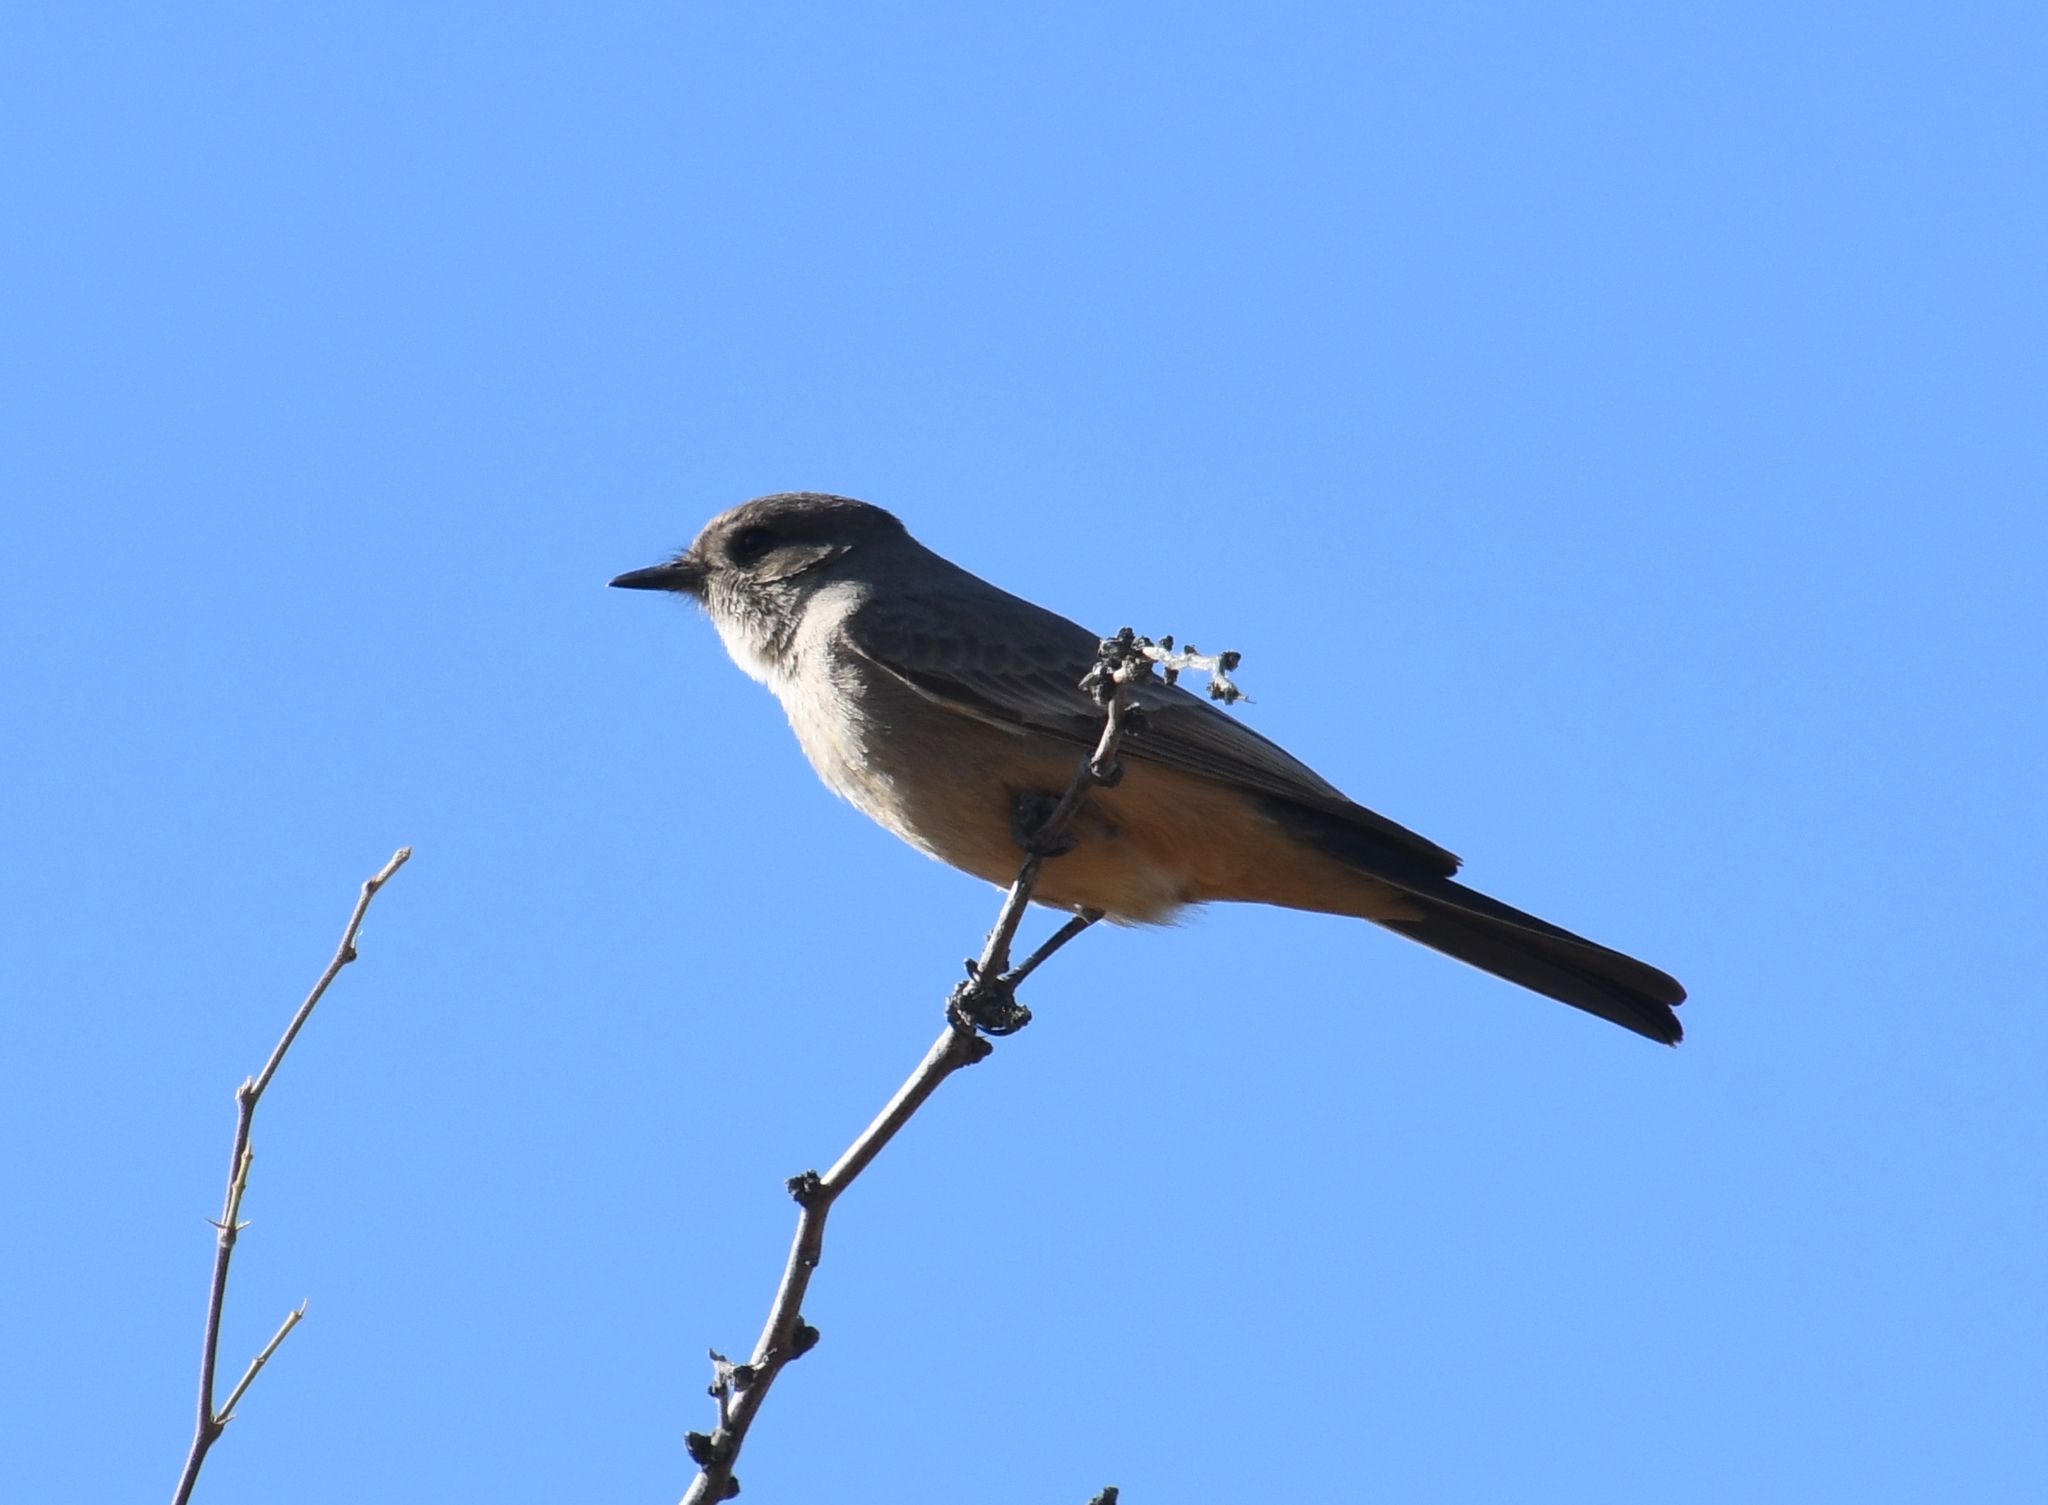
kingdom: Animalia
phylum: Chordata
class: Aves
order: Passeriformes
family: Tyrannidae
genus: Sayornis
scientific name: Sayornis saya
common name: Say's phoebe
